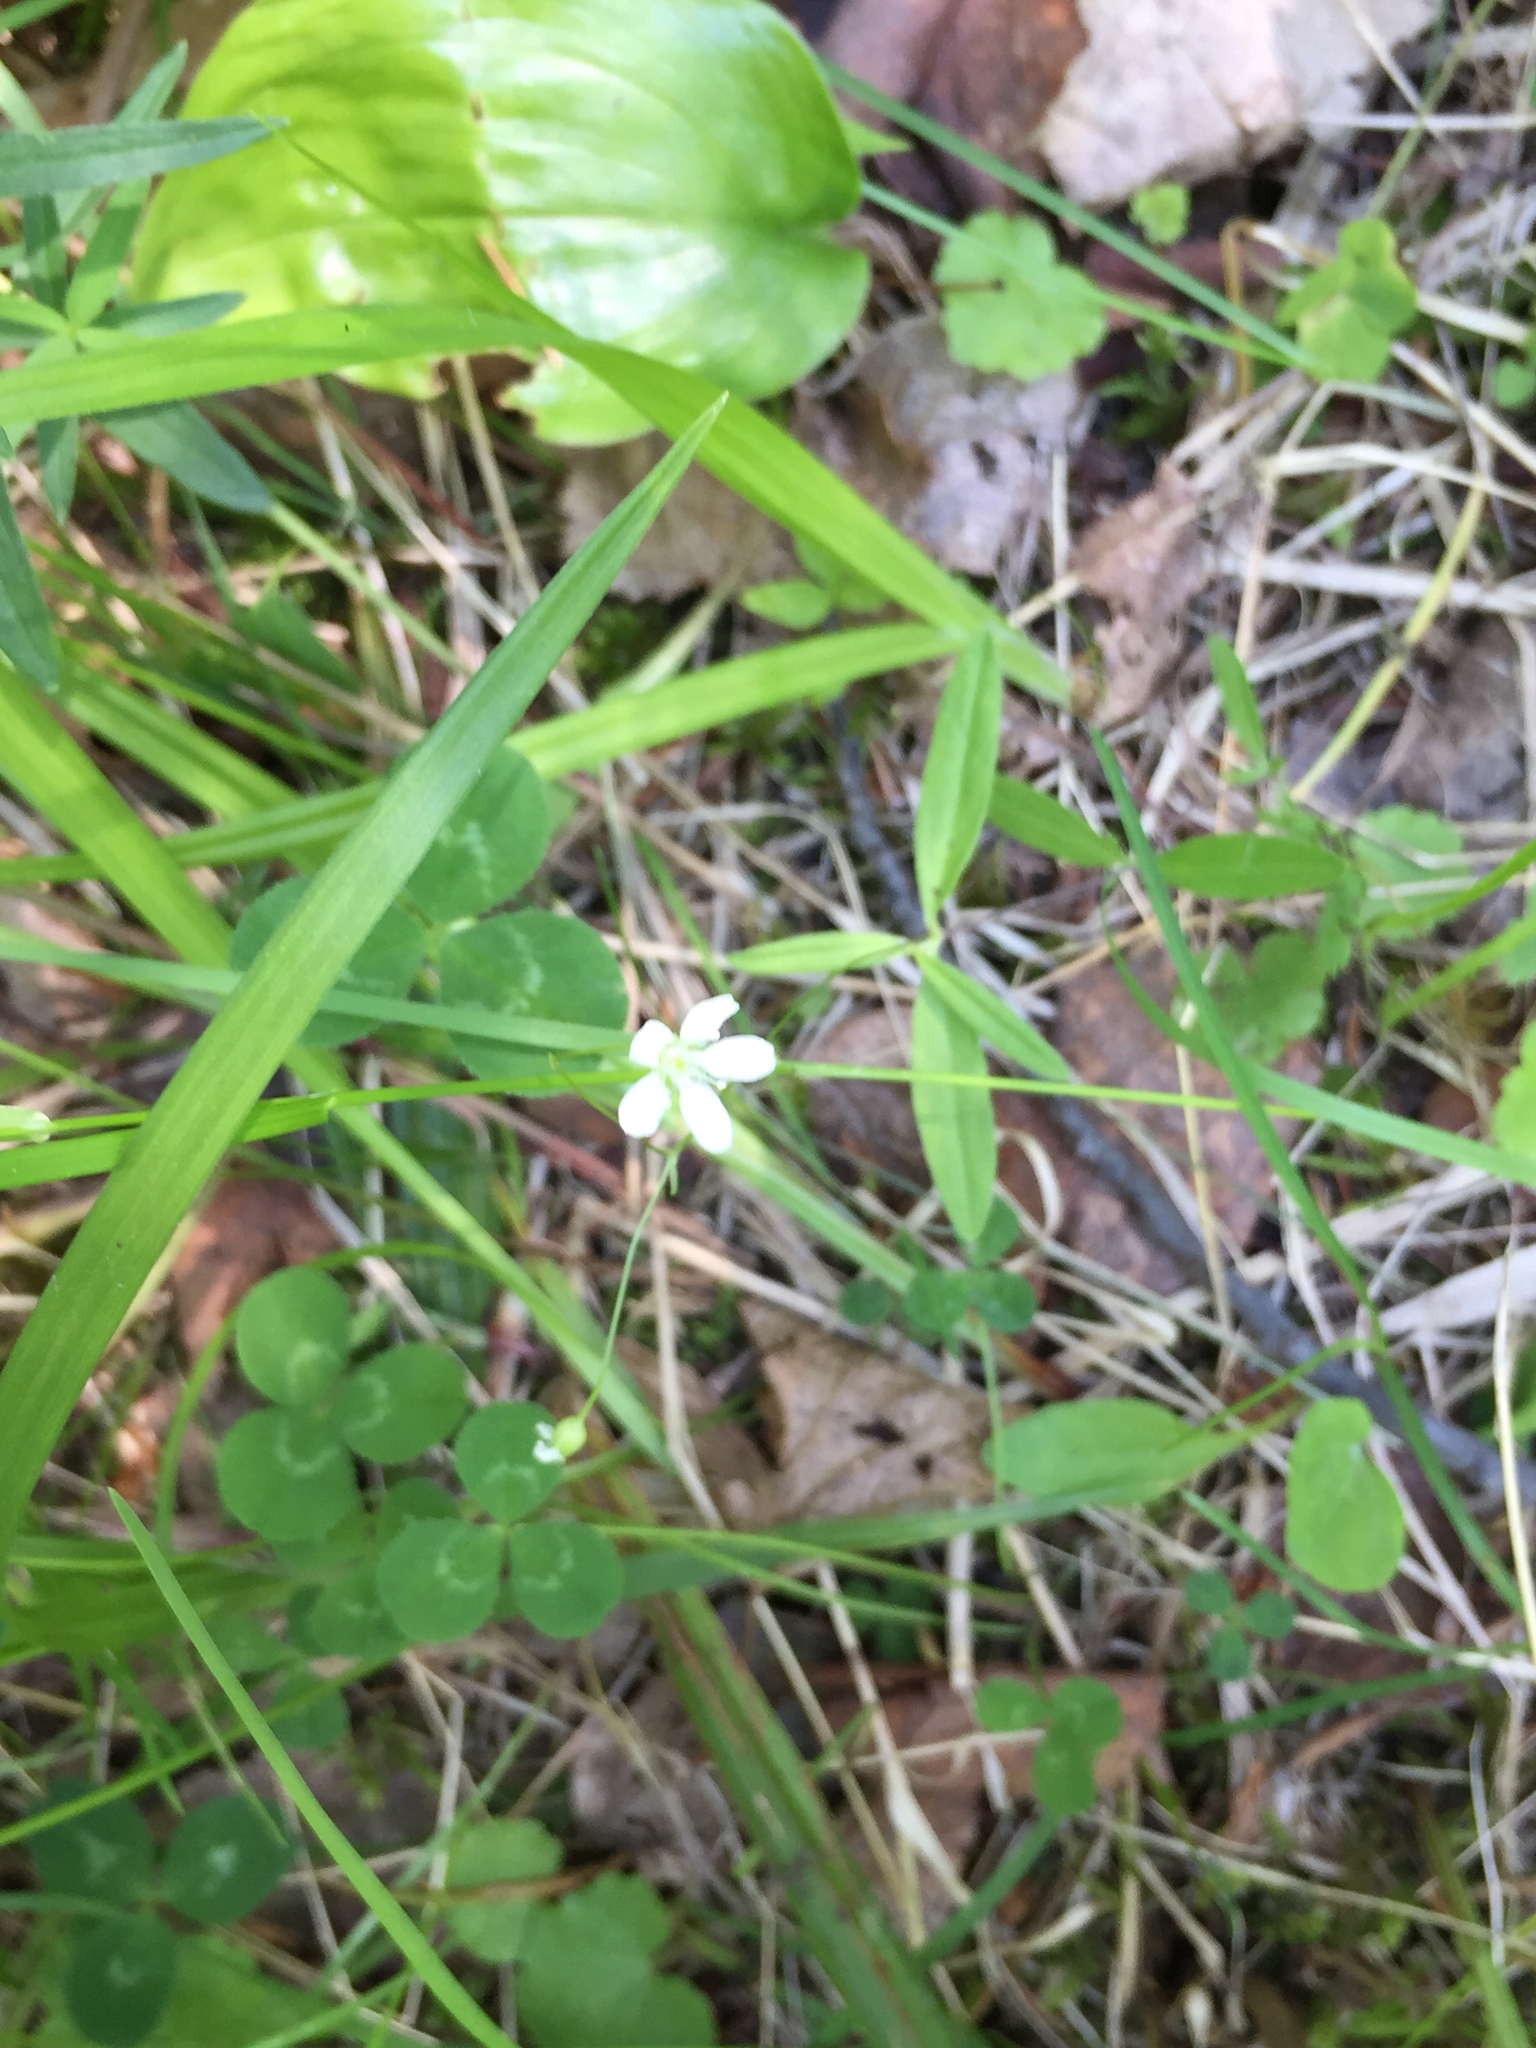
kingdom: Plantae
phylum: Tracheophyta
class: Magnoliopsida
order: Caryophyllales
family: Caryophyllaceae
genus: Moehringia
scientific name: Moehringia lateriflora
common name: Blunt-leaved sandwort
